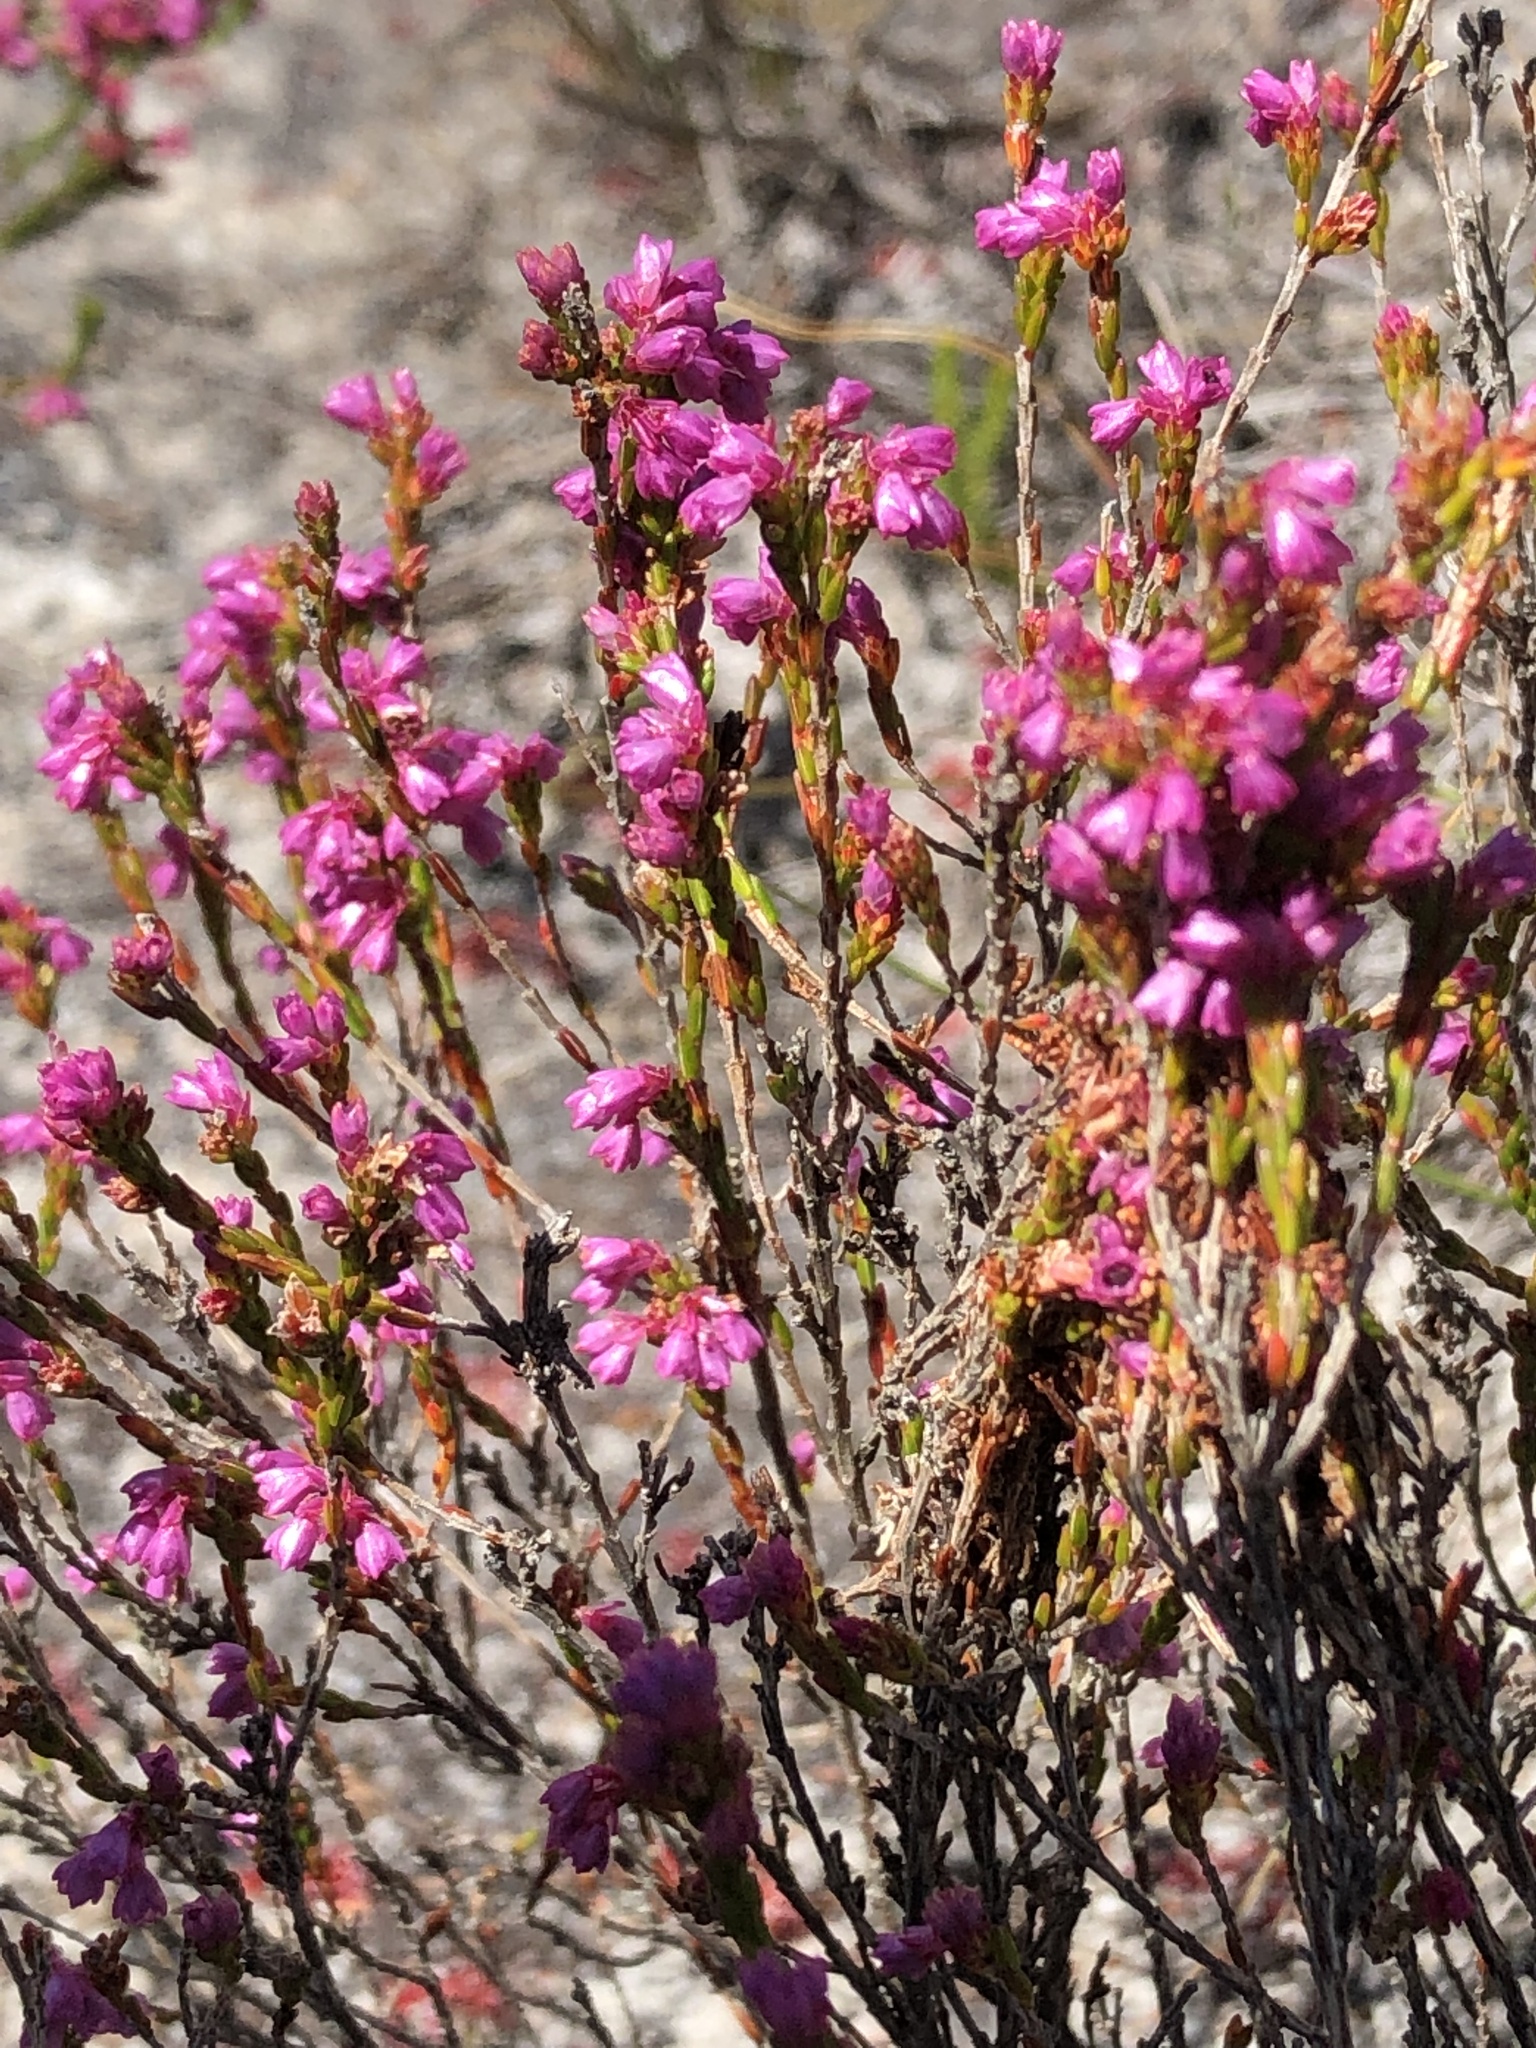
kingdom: Plantae
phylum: Tracheophyta
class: Magnoliopsida
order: Ericales
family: Ericaceae
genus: Erica
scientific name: Erica gnaphaloides
